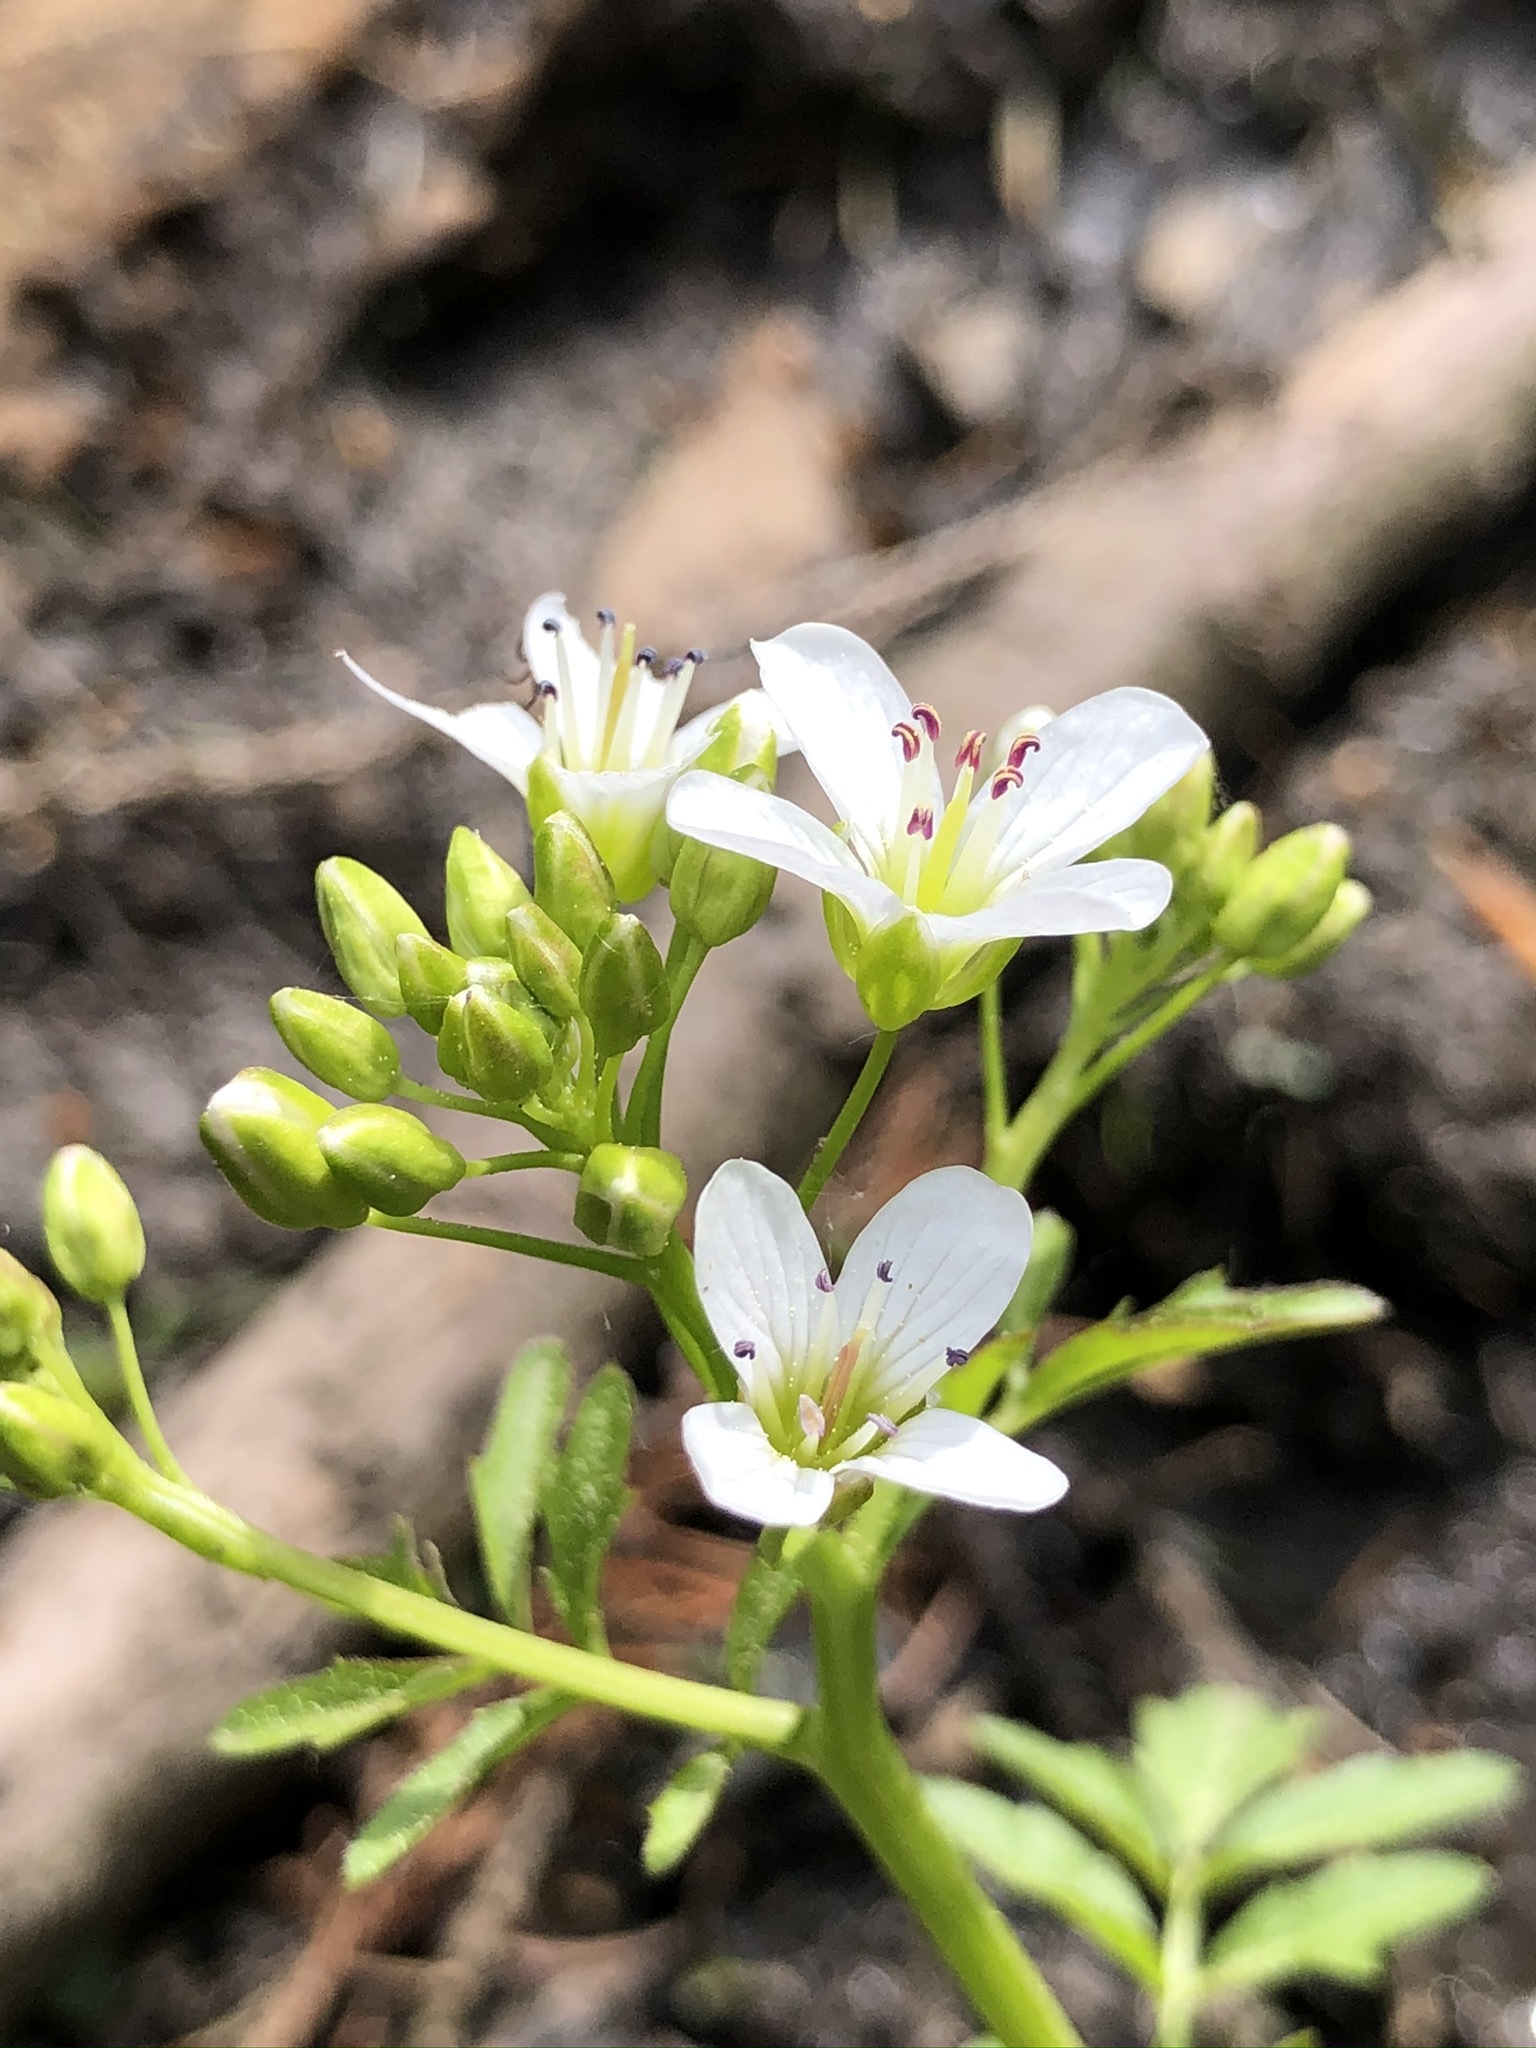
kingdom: Plantae
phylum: Tracheophyta
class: Magnoliopsida
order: Brassicales
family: Brassicaceae
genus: Cardamine
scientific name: Cardamine amara
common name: Large bitter-cress
